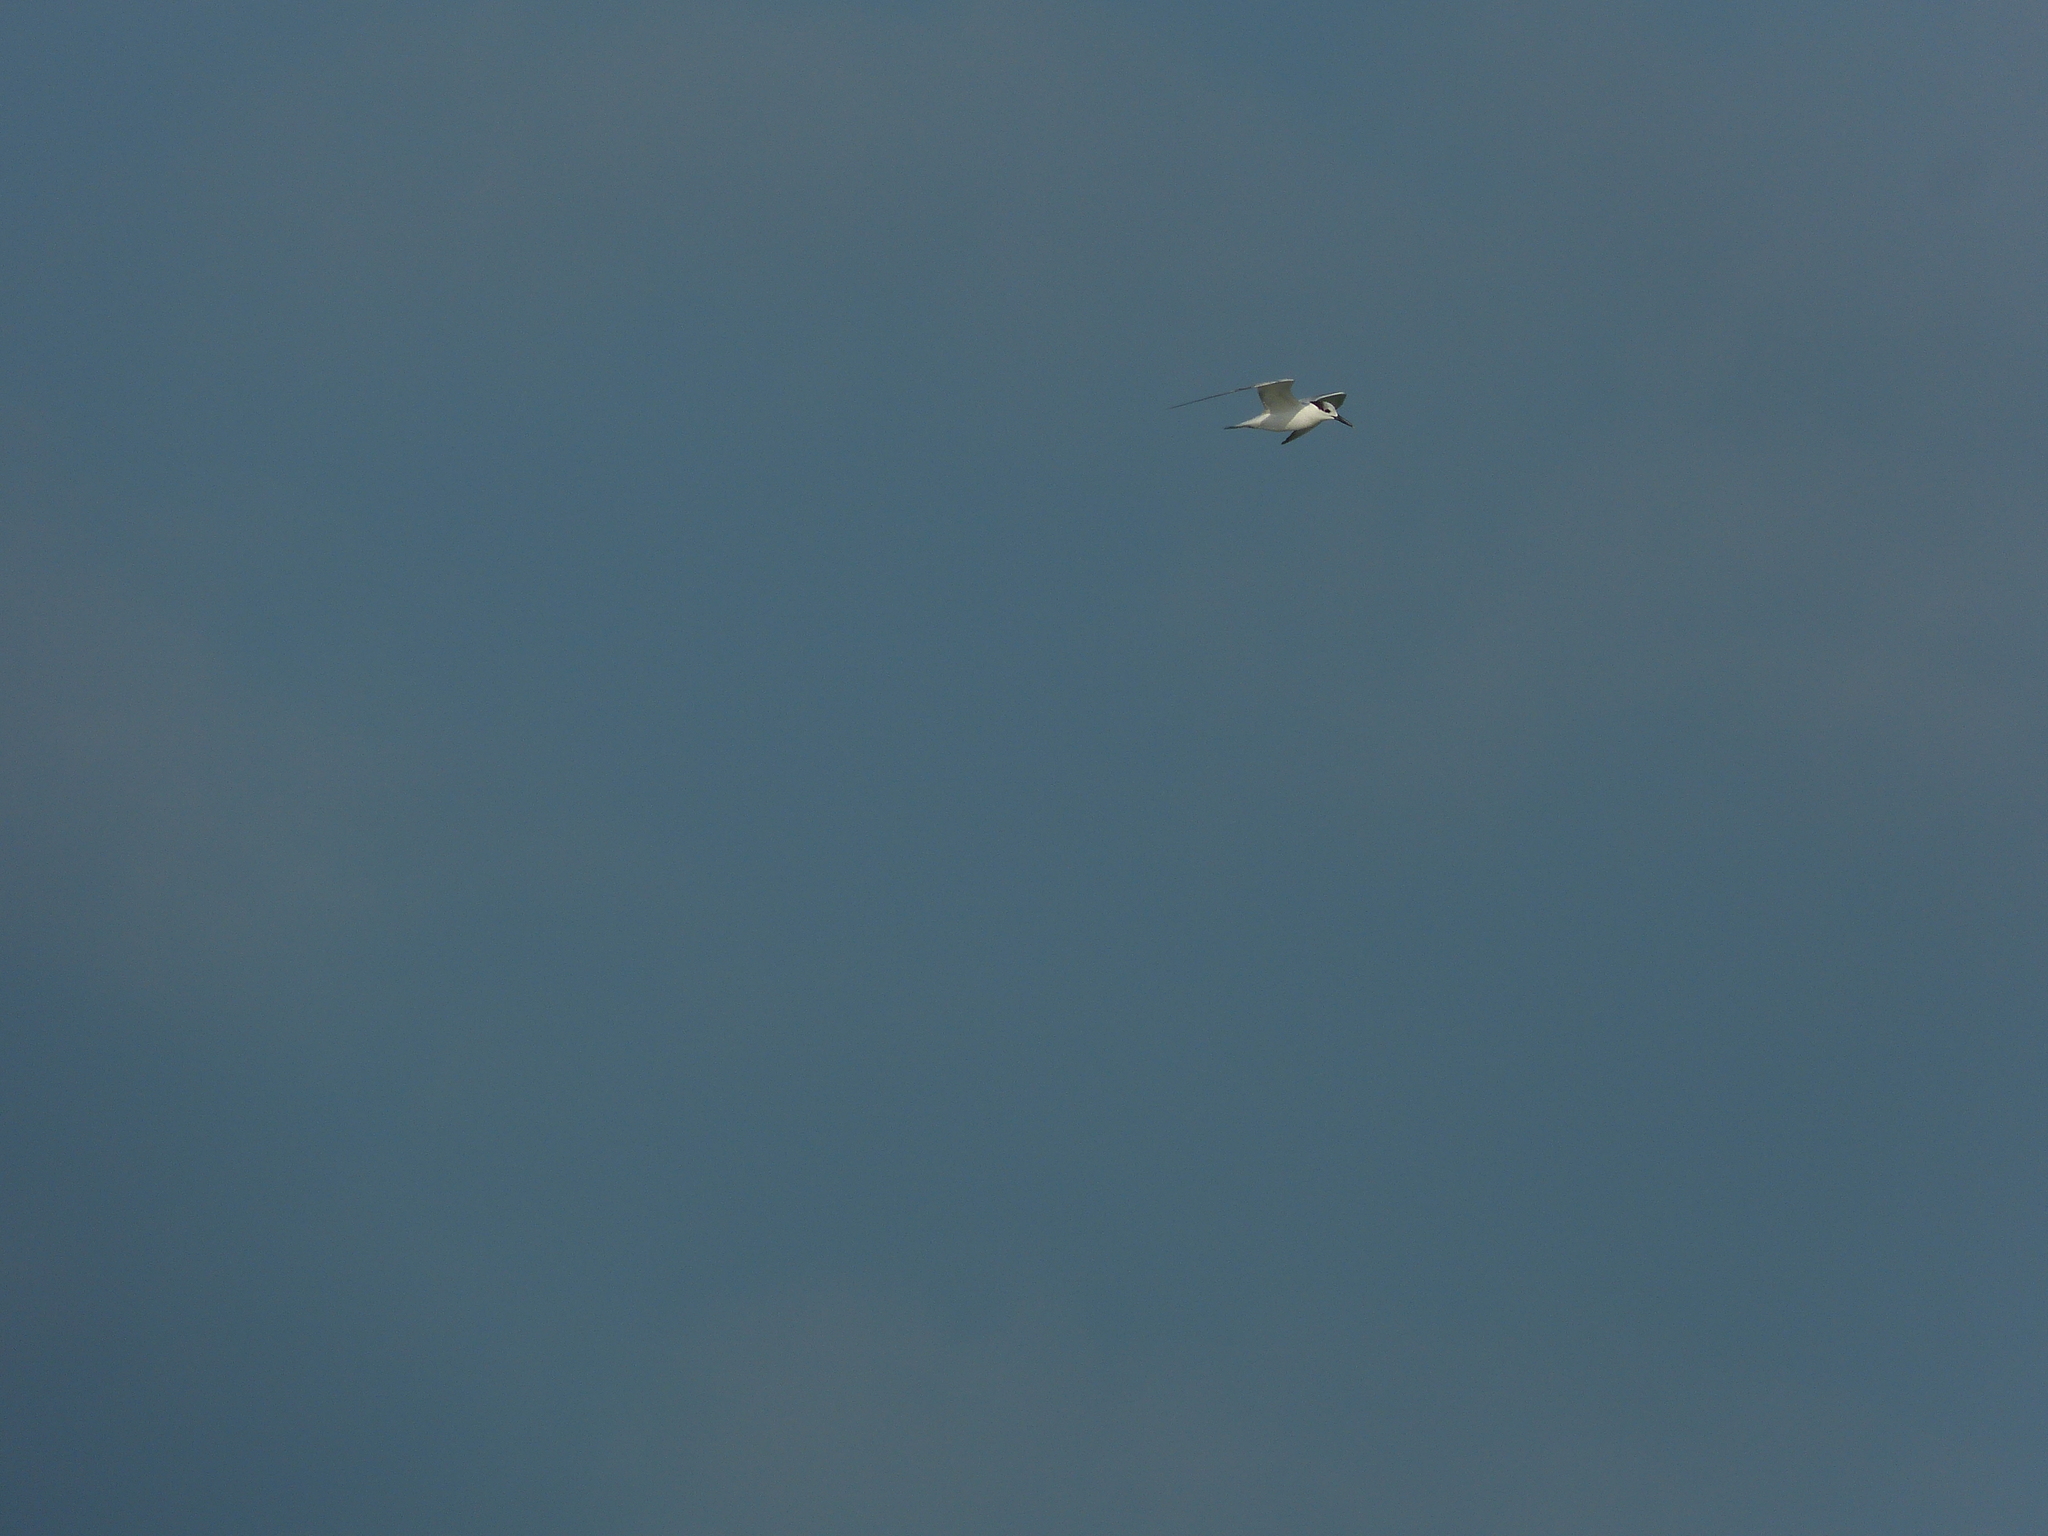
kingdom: Animalia
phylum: Chordata
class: Aves
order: Charadriiformes
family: Laridae
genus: Thalasseus
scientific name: Thalasseus sandvicensis
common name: Sandwich tern
